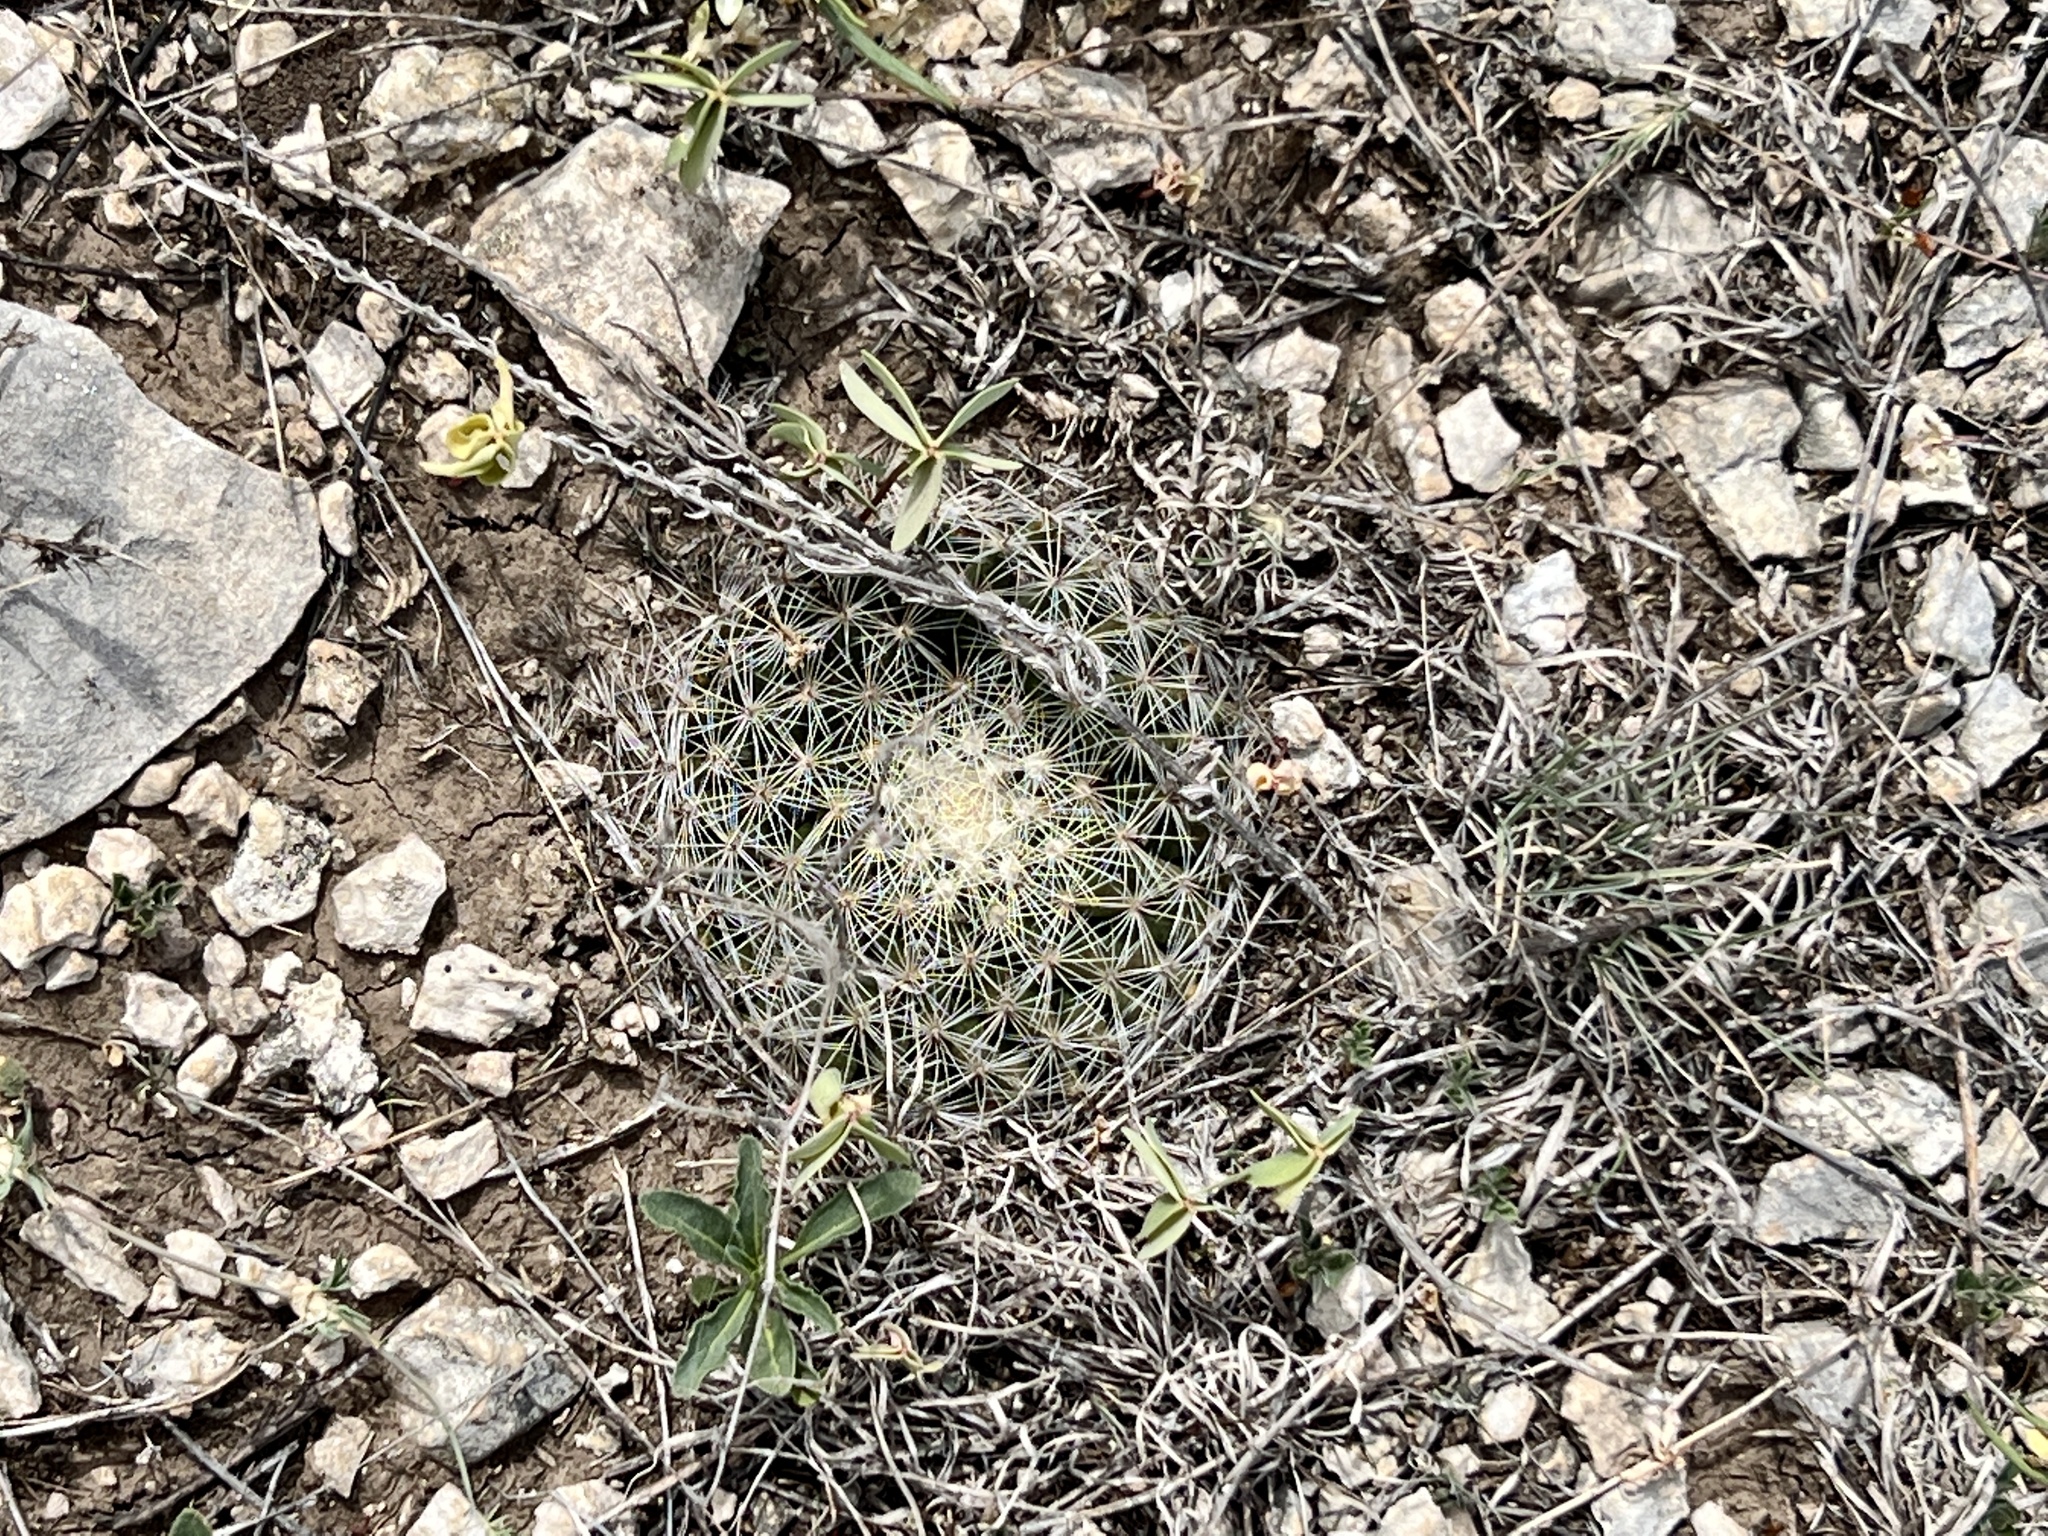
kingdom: Plantae
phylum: Tracheophyta
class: Magnoliopsida
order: Caryophyllales
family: Cactaceae
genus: Mammillaria
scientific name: Mammillaria heyderi
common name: Little nipple cactus
